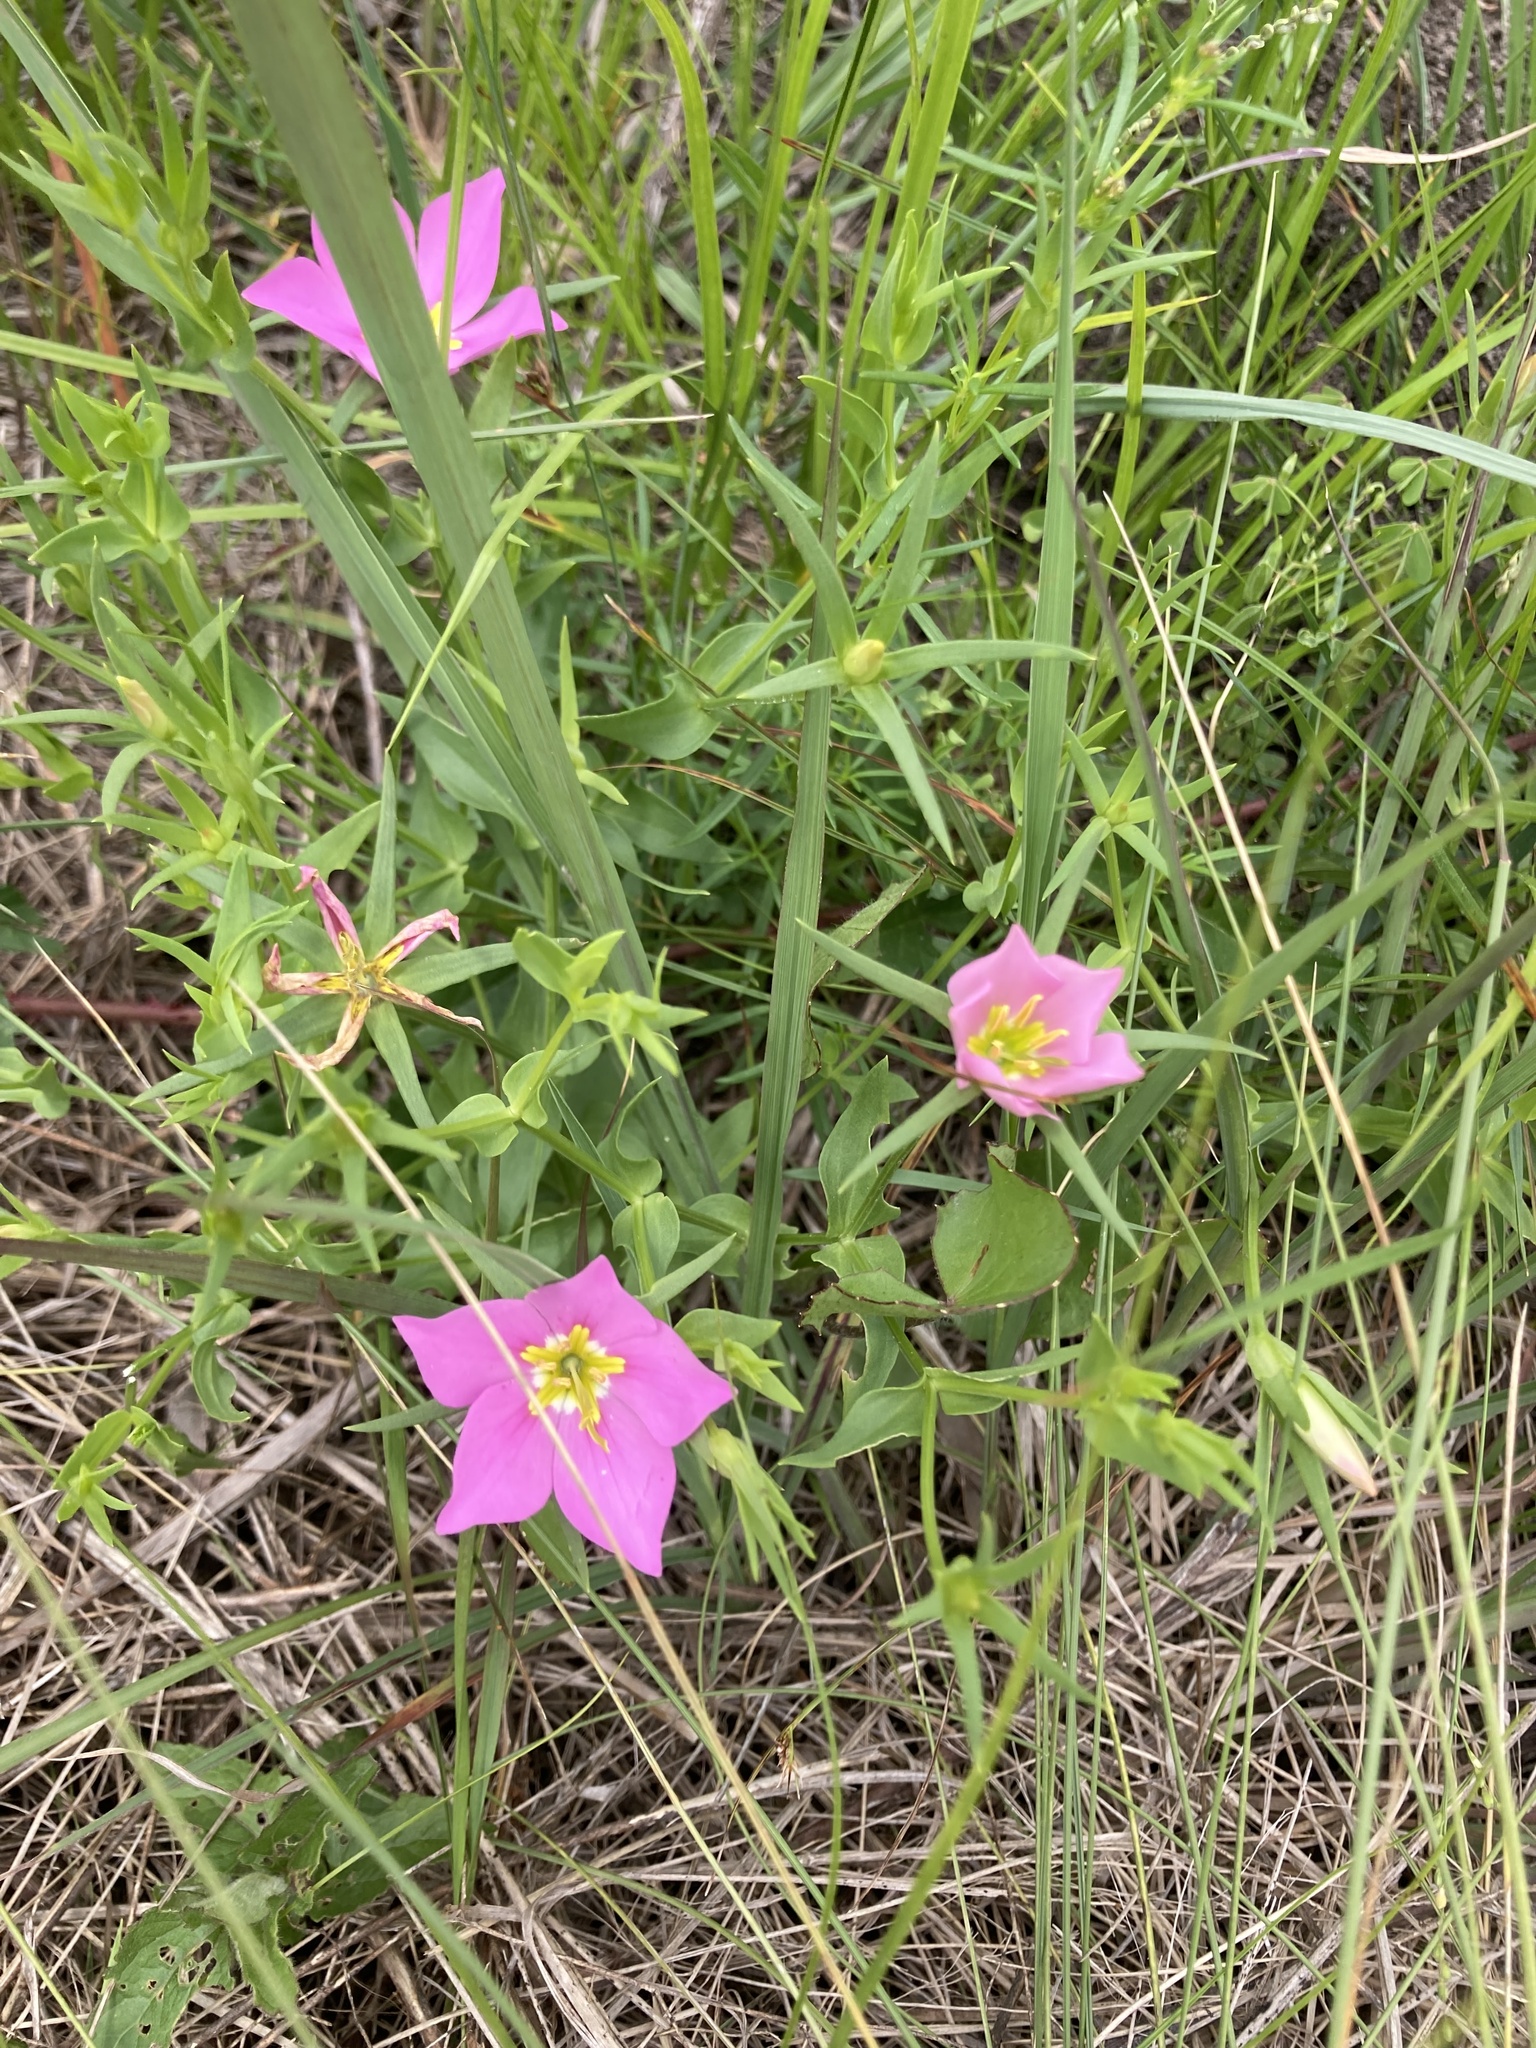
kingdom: Plantae
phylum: Tracheophyta
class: Magnoliopsida
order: Gentianales
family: Gentianaceae
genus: Sabatia
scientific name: Sabatia campestris
